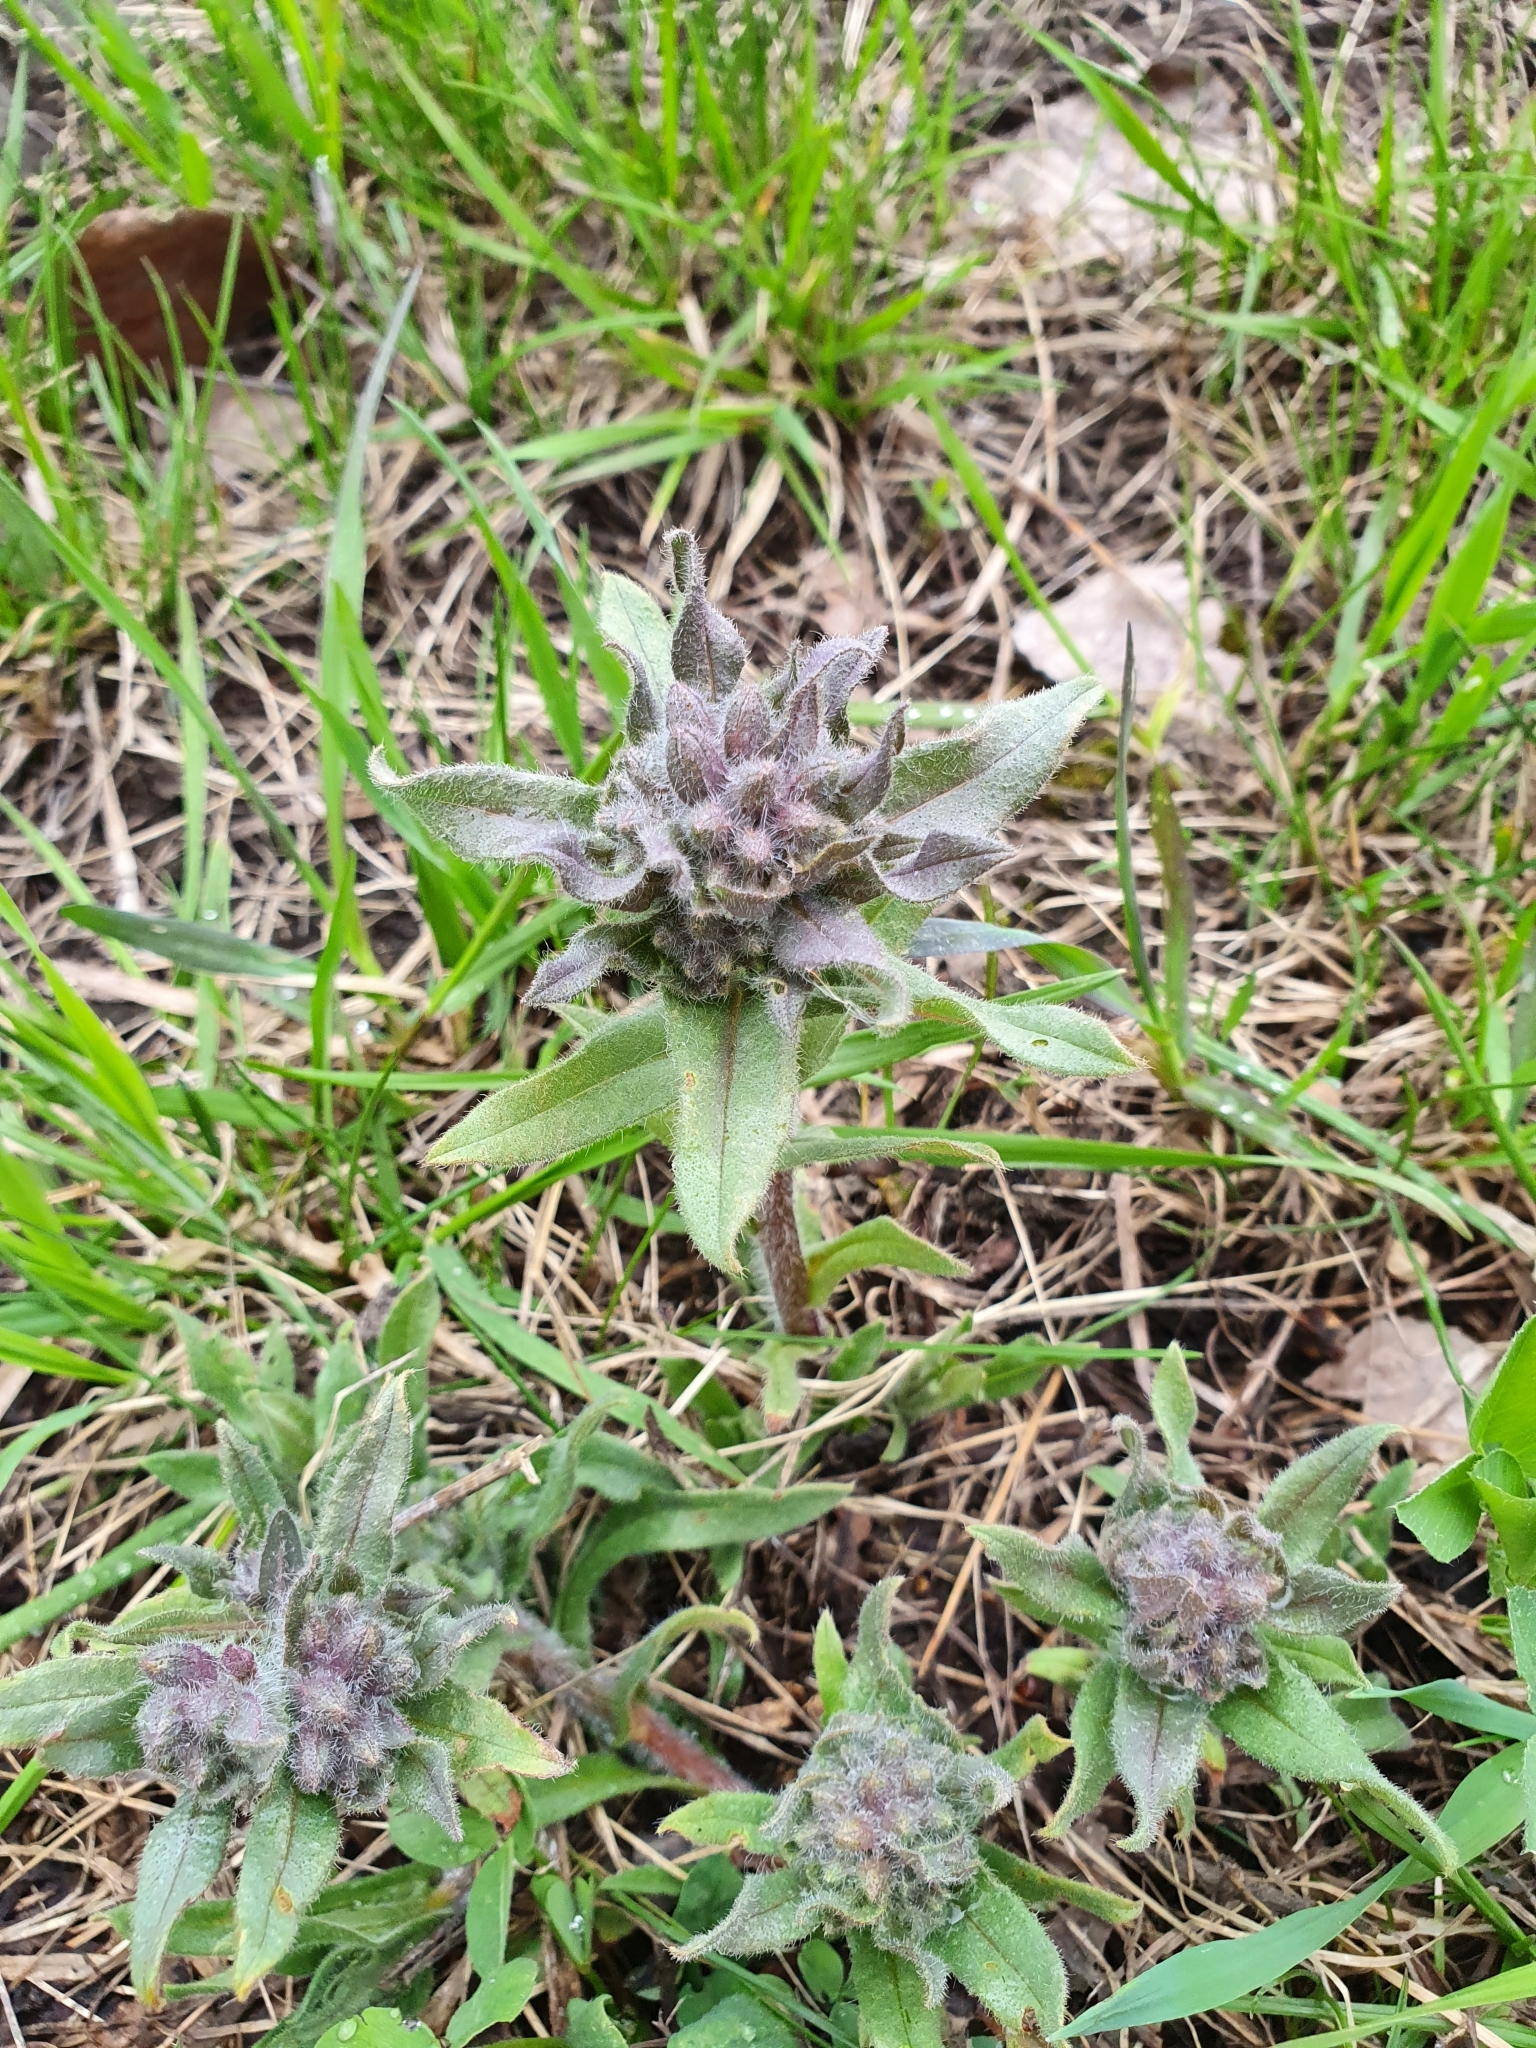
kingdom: Plantae
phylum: Tracheophyta
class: Magnoliopsida
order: Boraginales
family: Boraginaceae
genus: Nonea
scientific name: Nonea pulla
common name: Brown nonea
